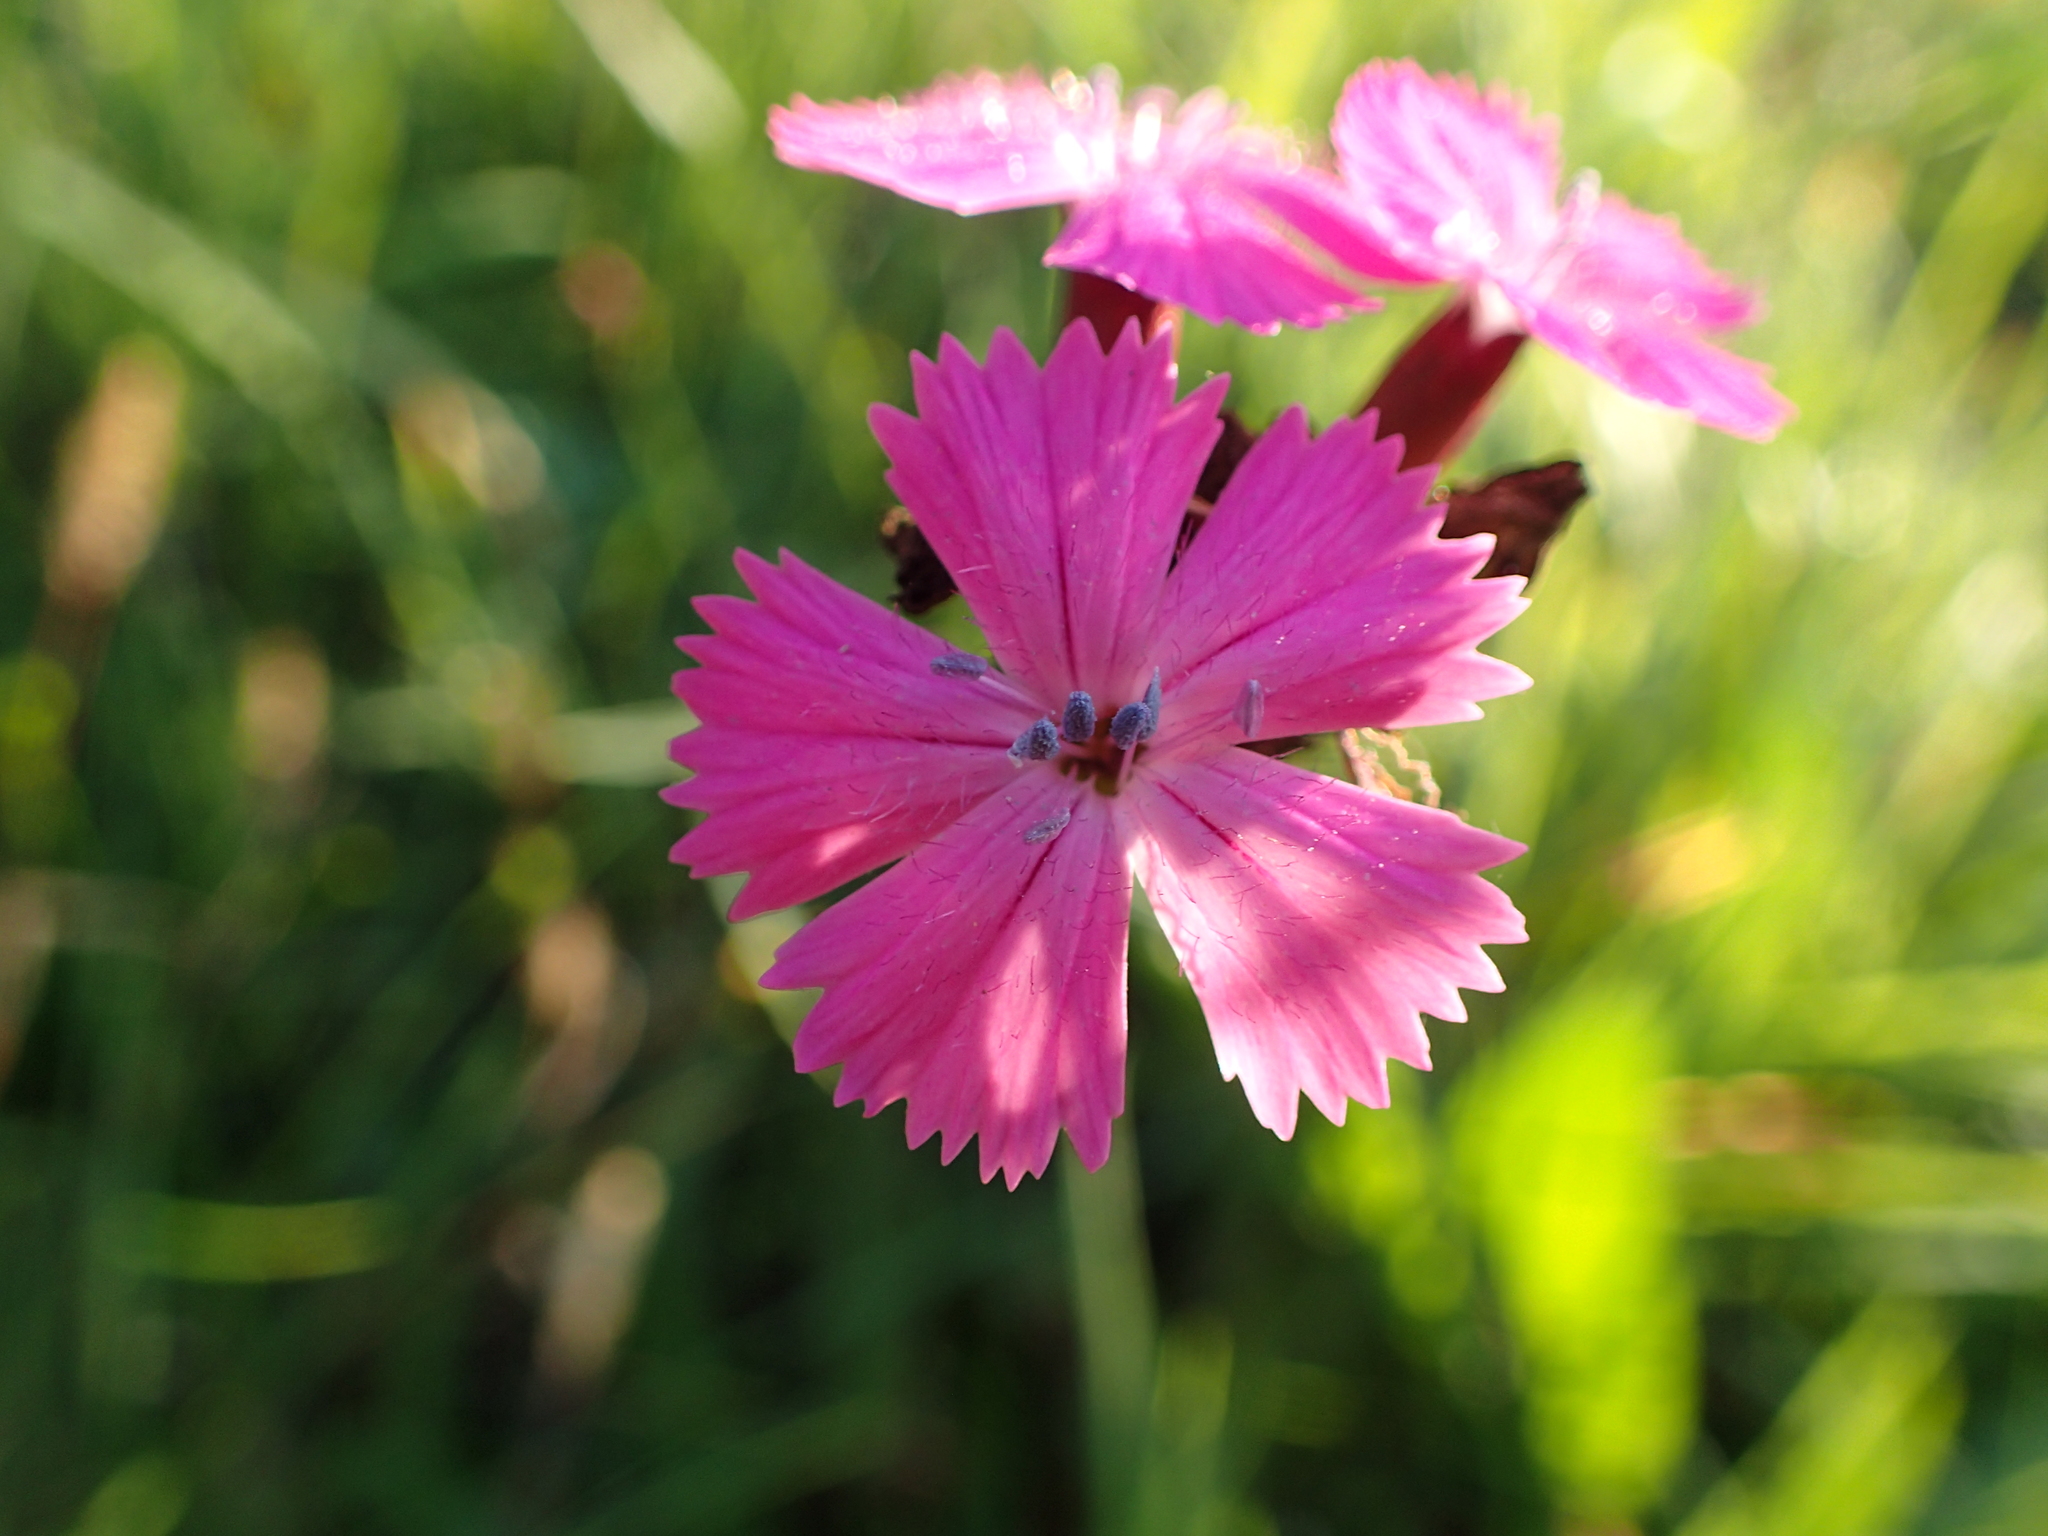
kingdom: Plantae
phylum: Tracheophyta
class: Magnoliopsida
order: Caryophyllales
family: Caryophyllaceae
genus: Dianthus
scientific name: Dianthus carthusianorum
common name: Carthusian pink
